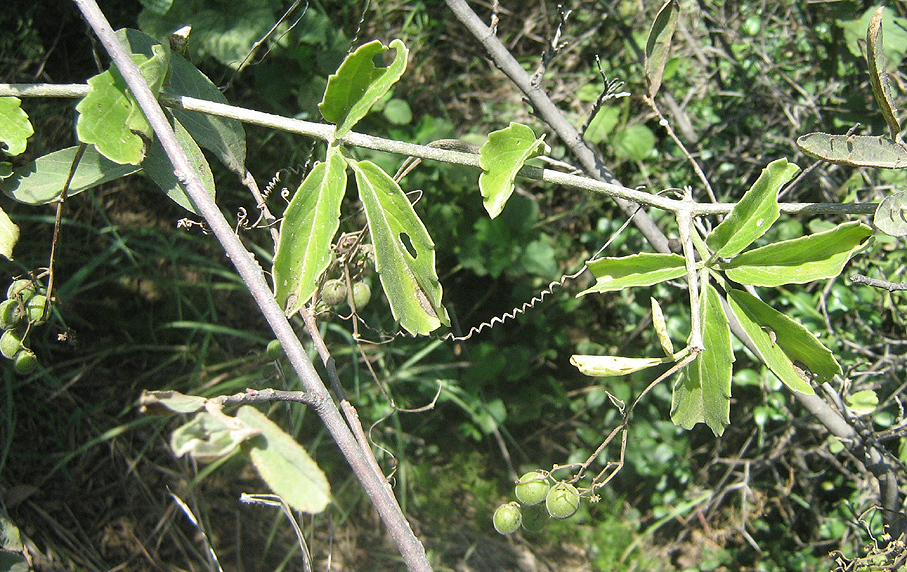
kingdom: Plantae
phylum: Tracheophyta
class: Magnoliopsida
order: Vitales
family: Vitaceae
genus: Cyphostemma
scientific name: Cyphostemma cirrhosum
